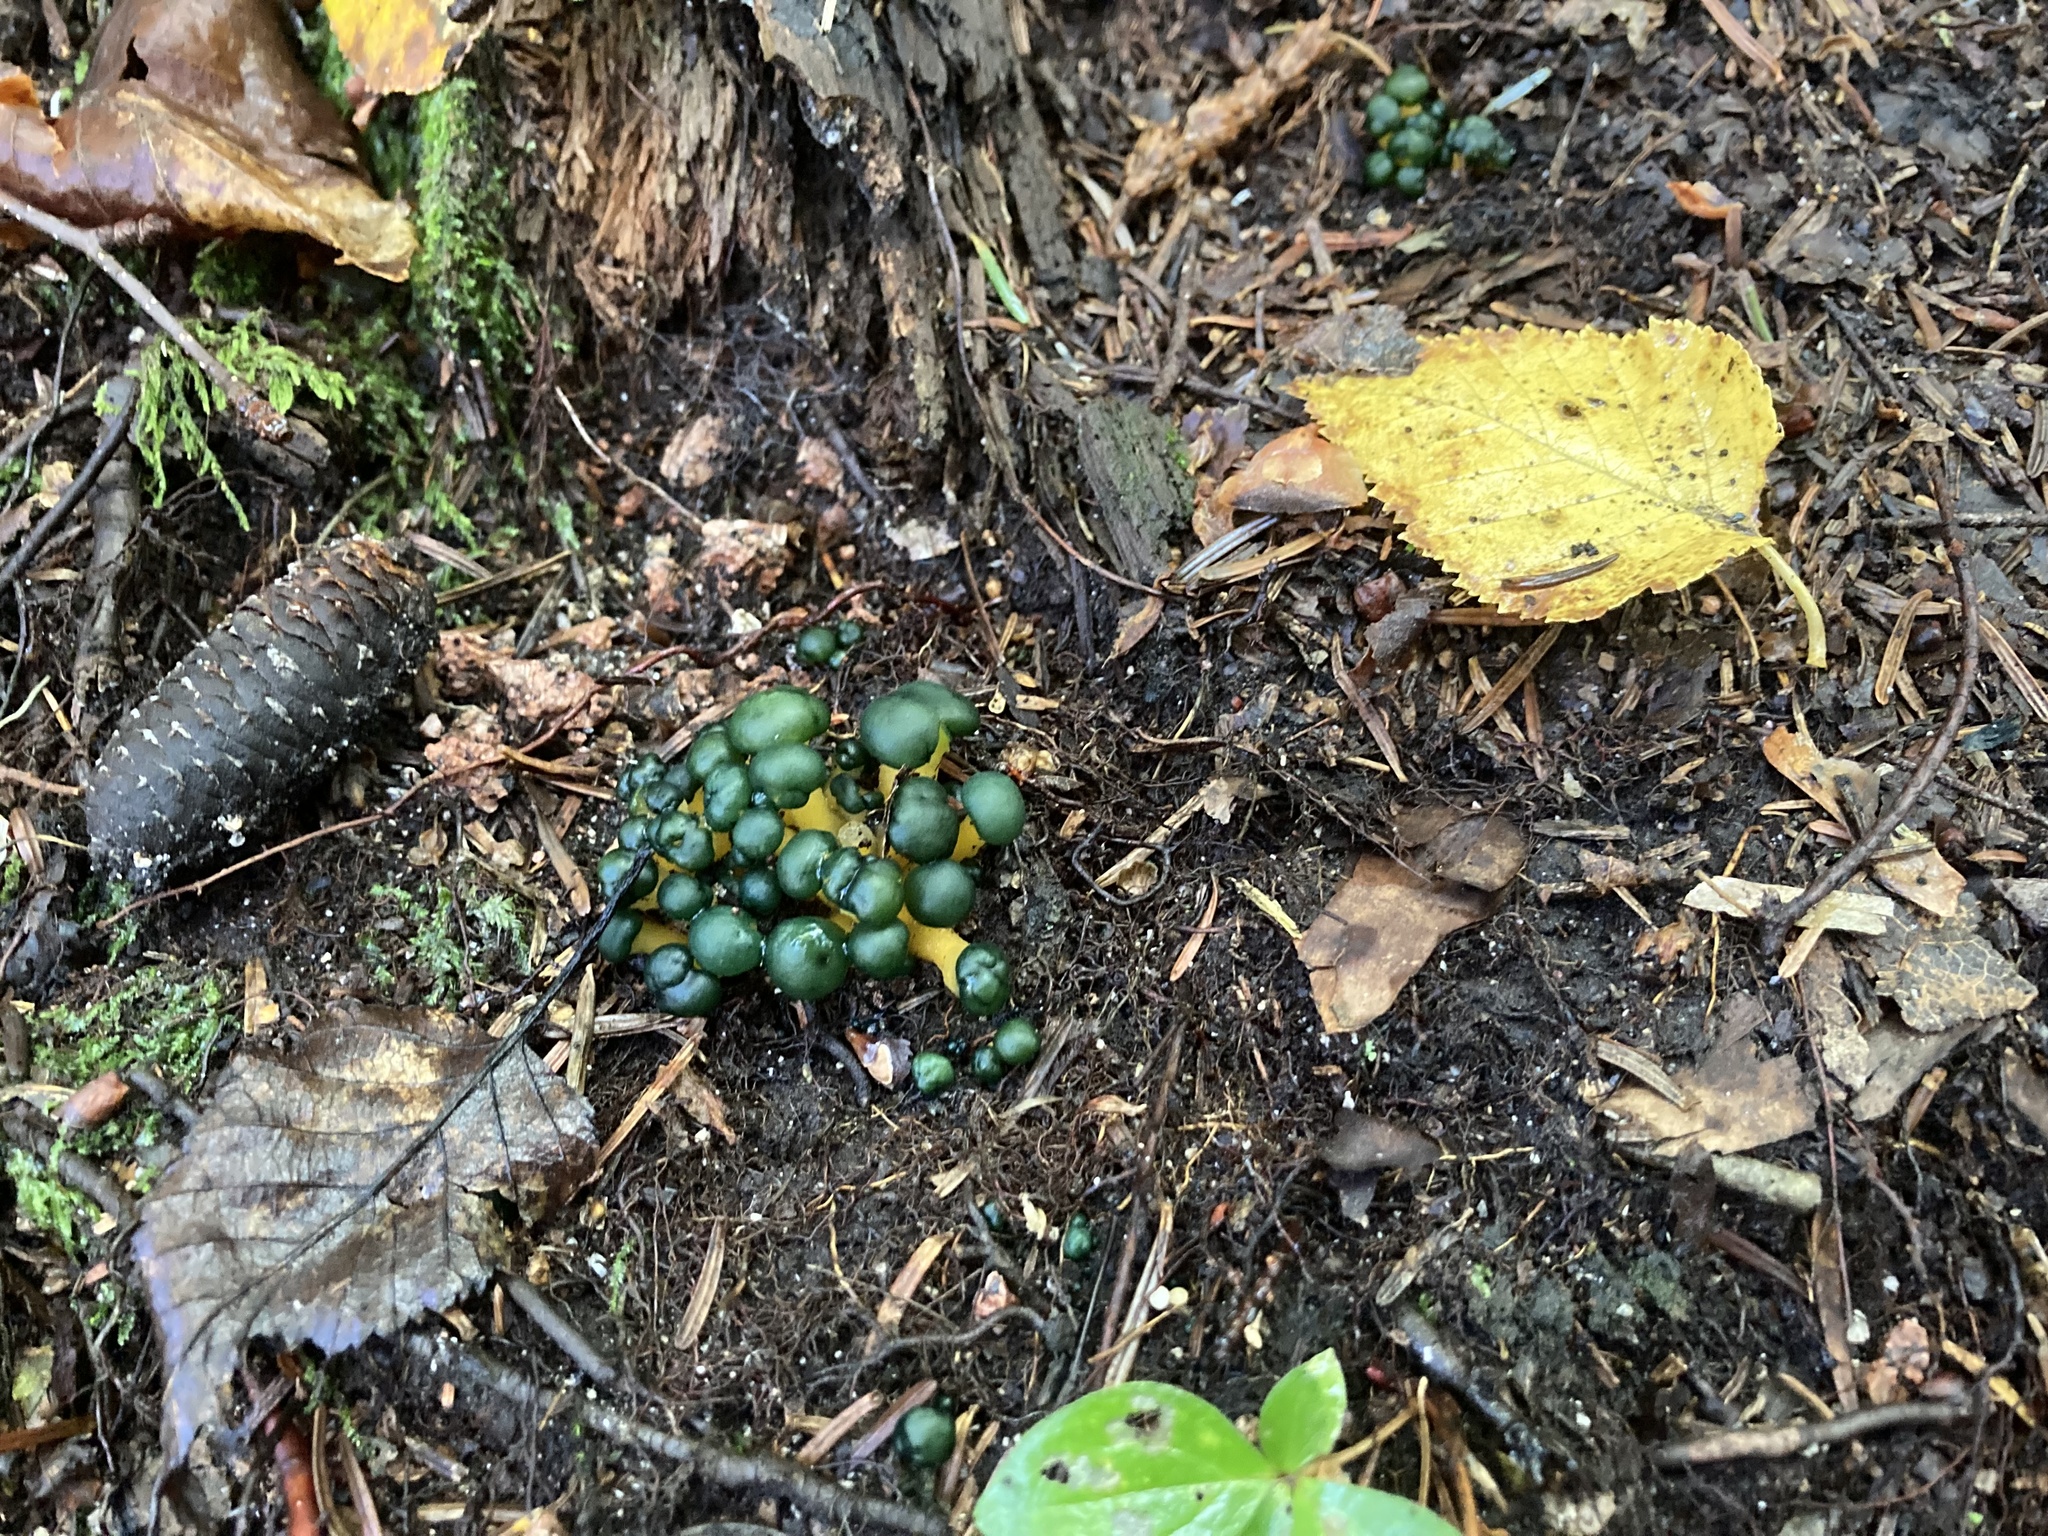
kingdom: Fungi
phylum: Ascomycota
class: Leotiomycetes
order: Leotiales
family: Leotiaceae
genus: Leotia
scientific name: Leotia lubrica
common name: Jellybaby
